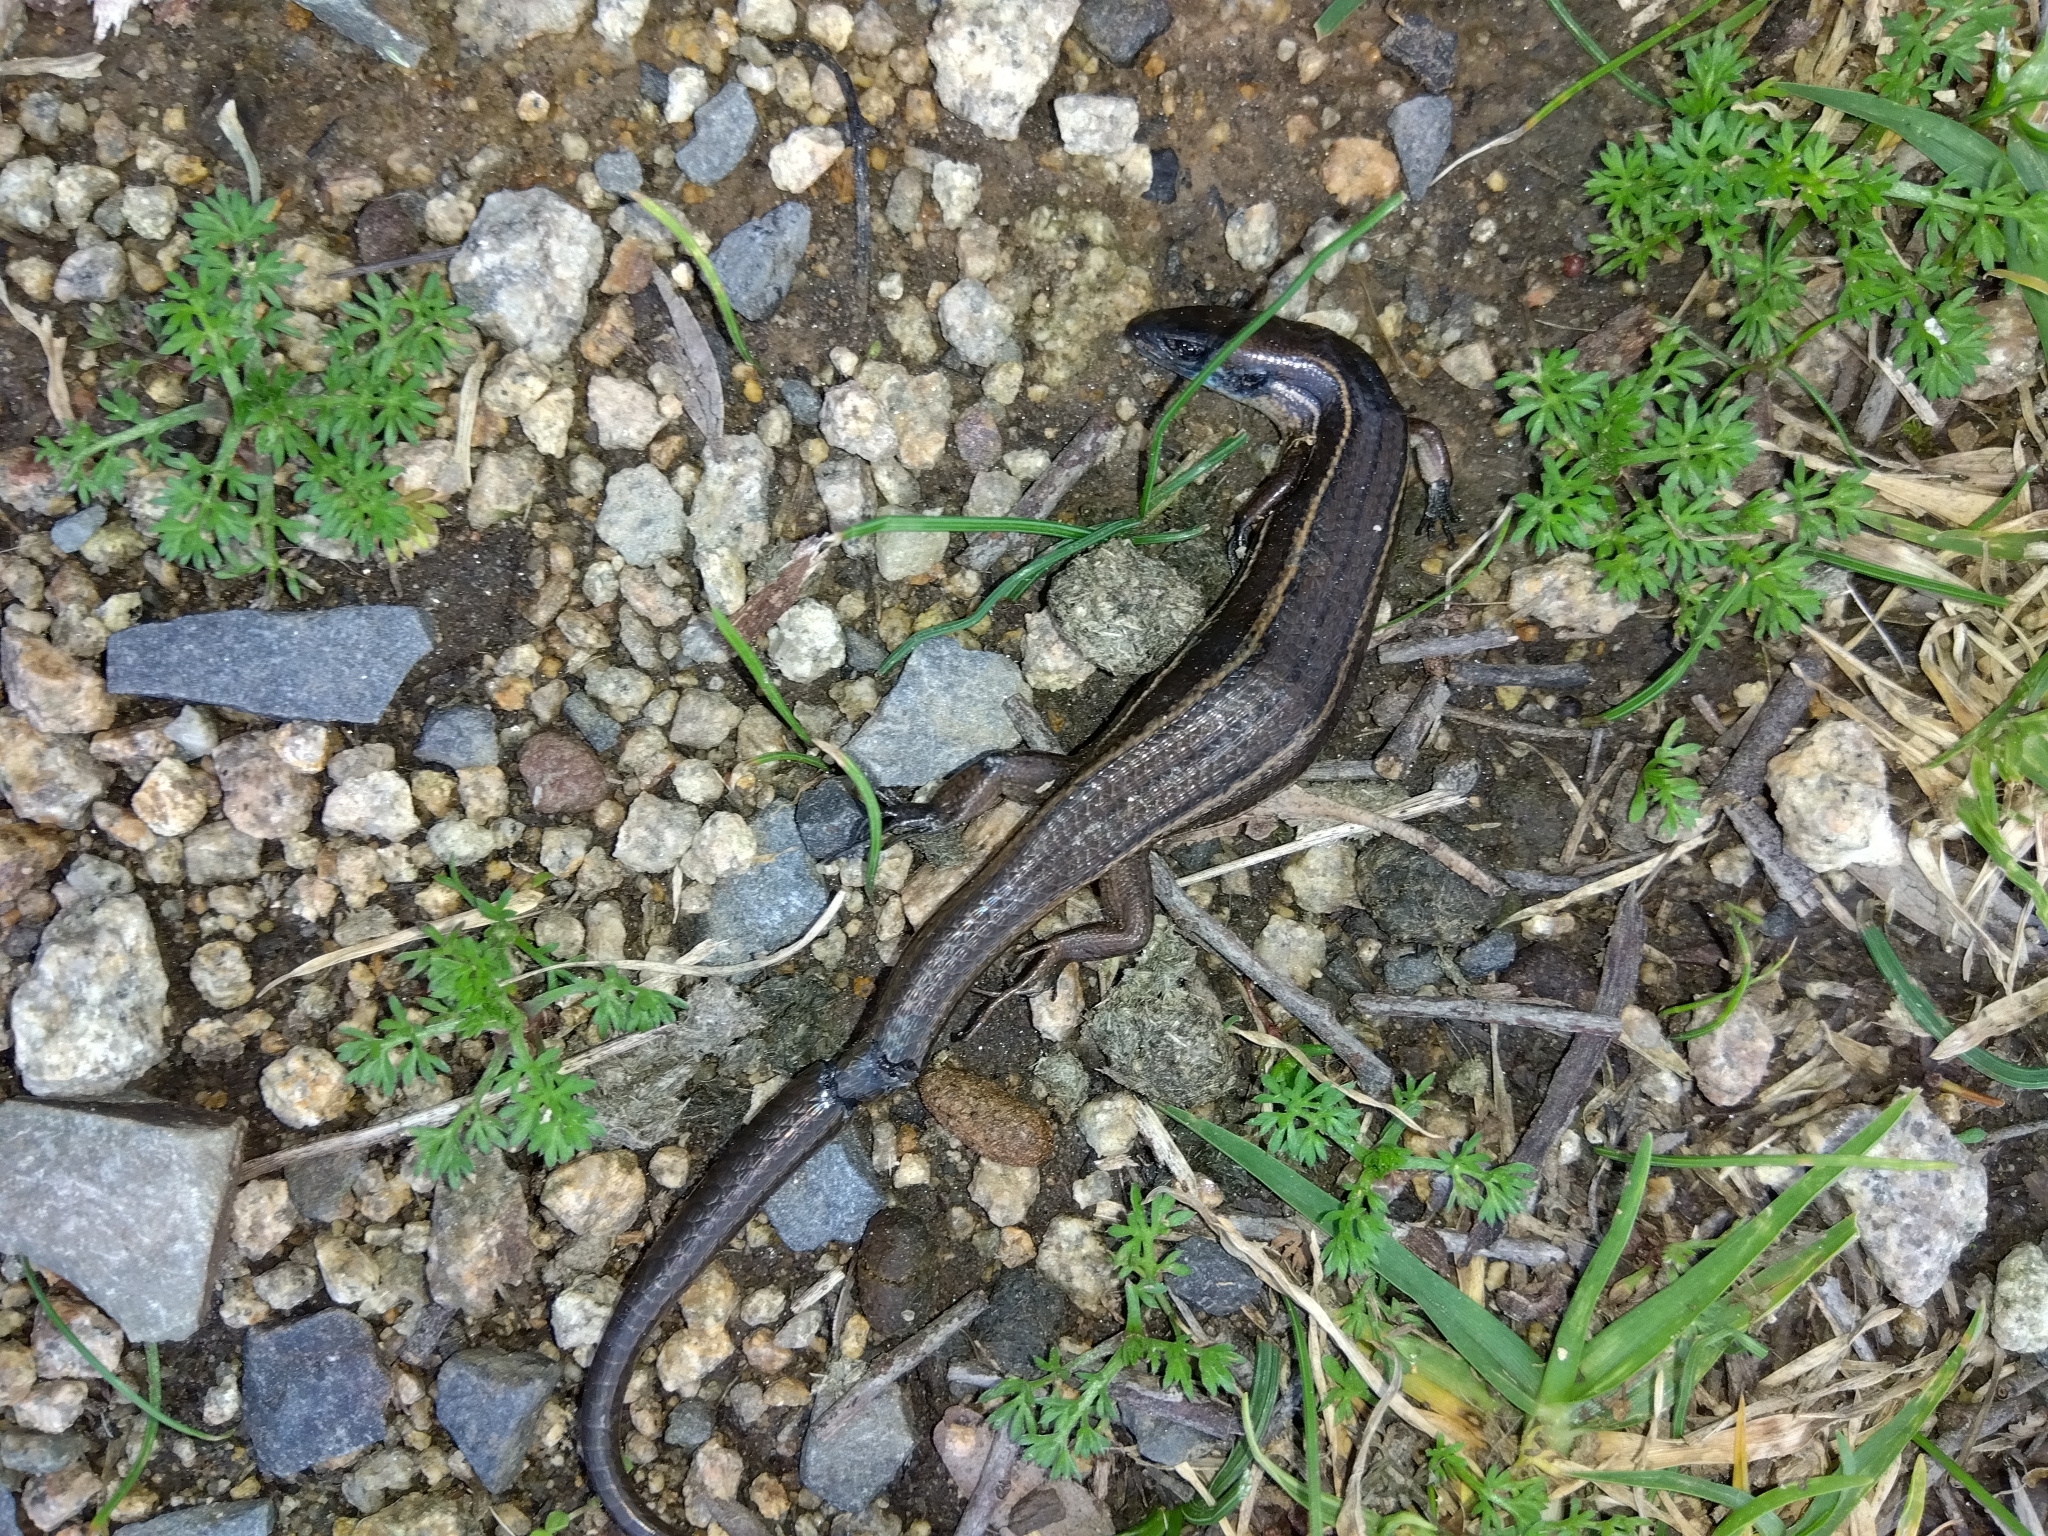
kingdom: Animalia
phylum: Chordata
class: Squamata
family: Scincidae
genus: Pseudemoia
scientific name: Pseudemoia rawlinsoni
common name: Rawlinson's window-eyed skink
